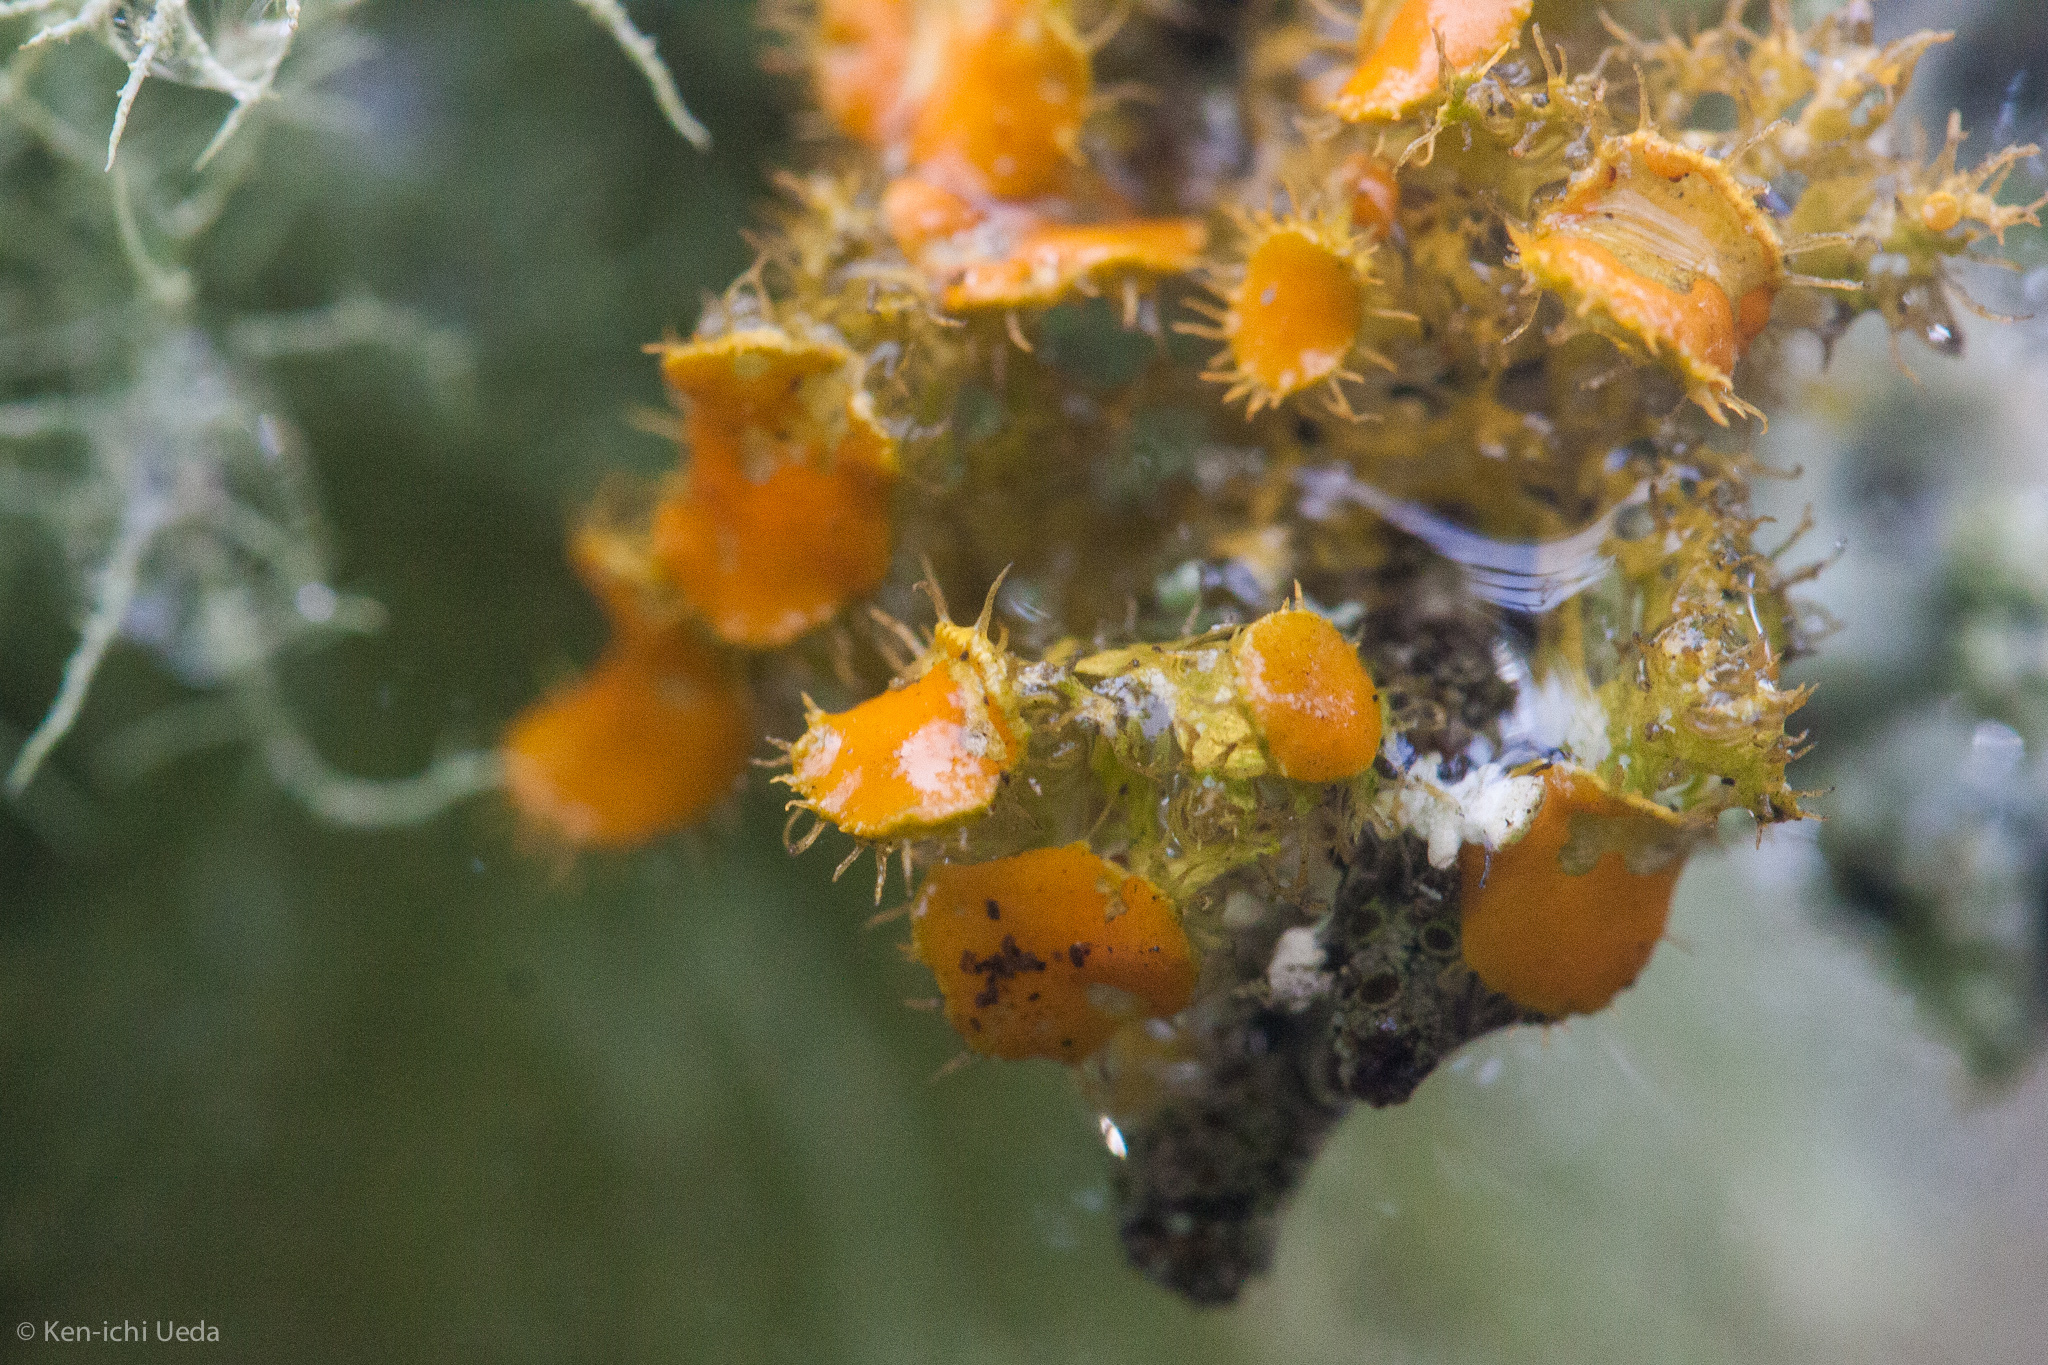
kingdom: Fungi
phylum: Ascomycota
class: Lecanoromycetes
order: Teloschistales
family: Teloschistaceae
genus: Niorma
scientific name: Niorma chrysophthalma
